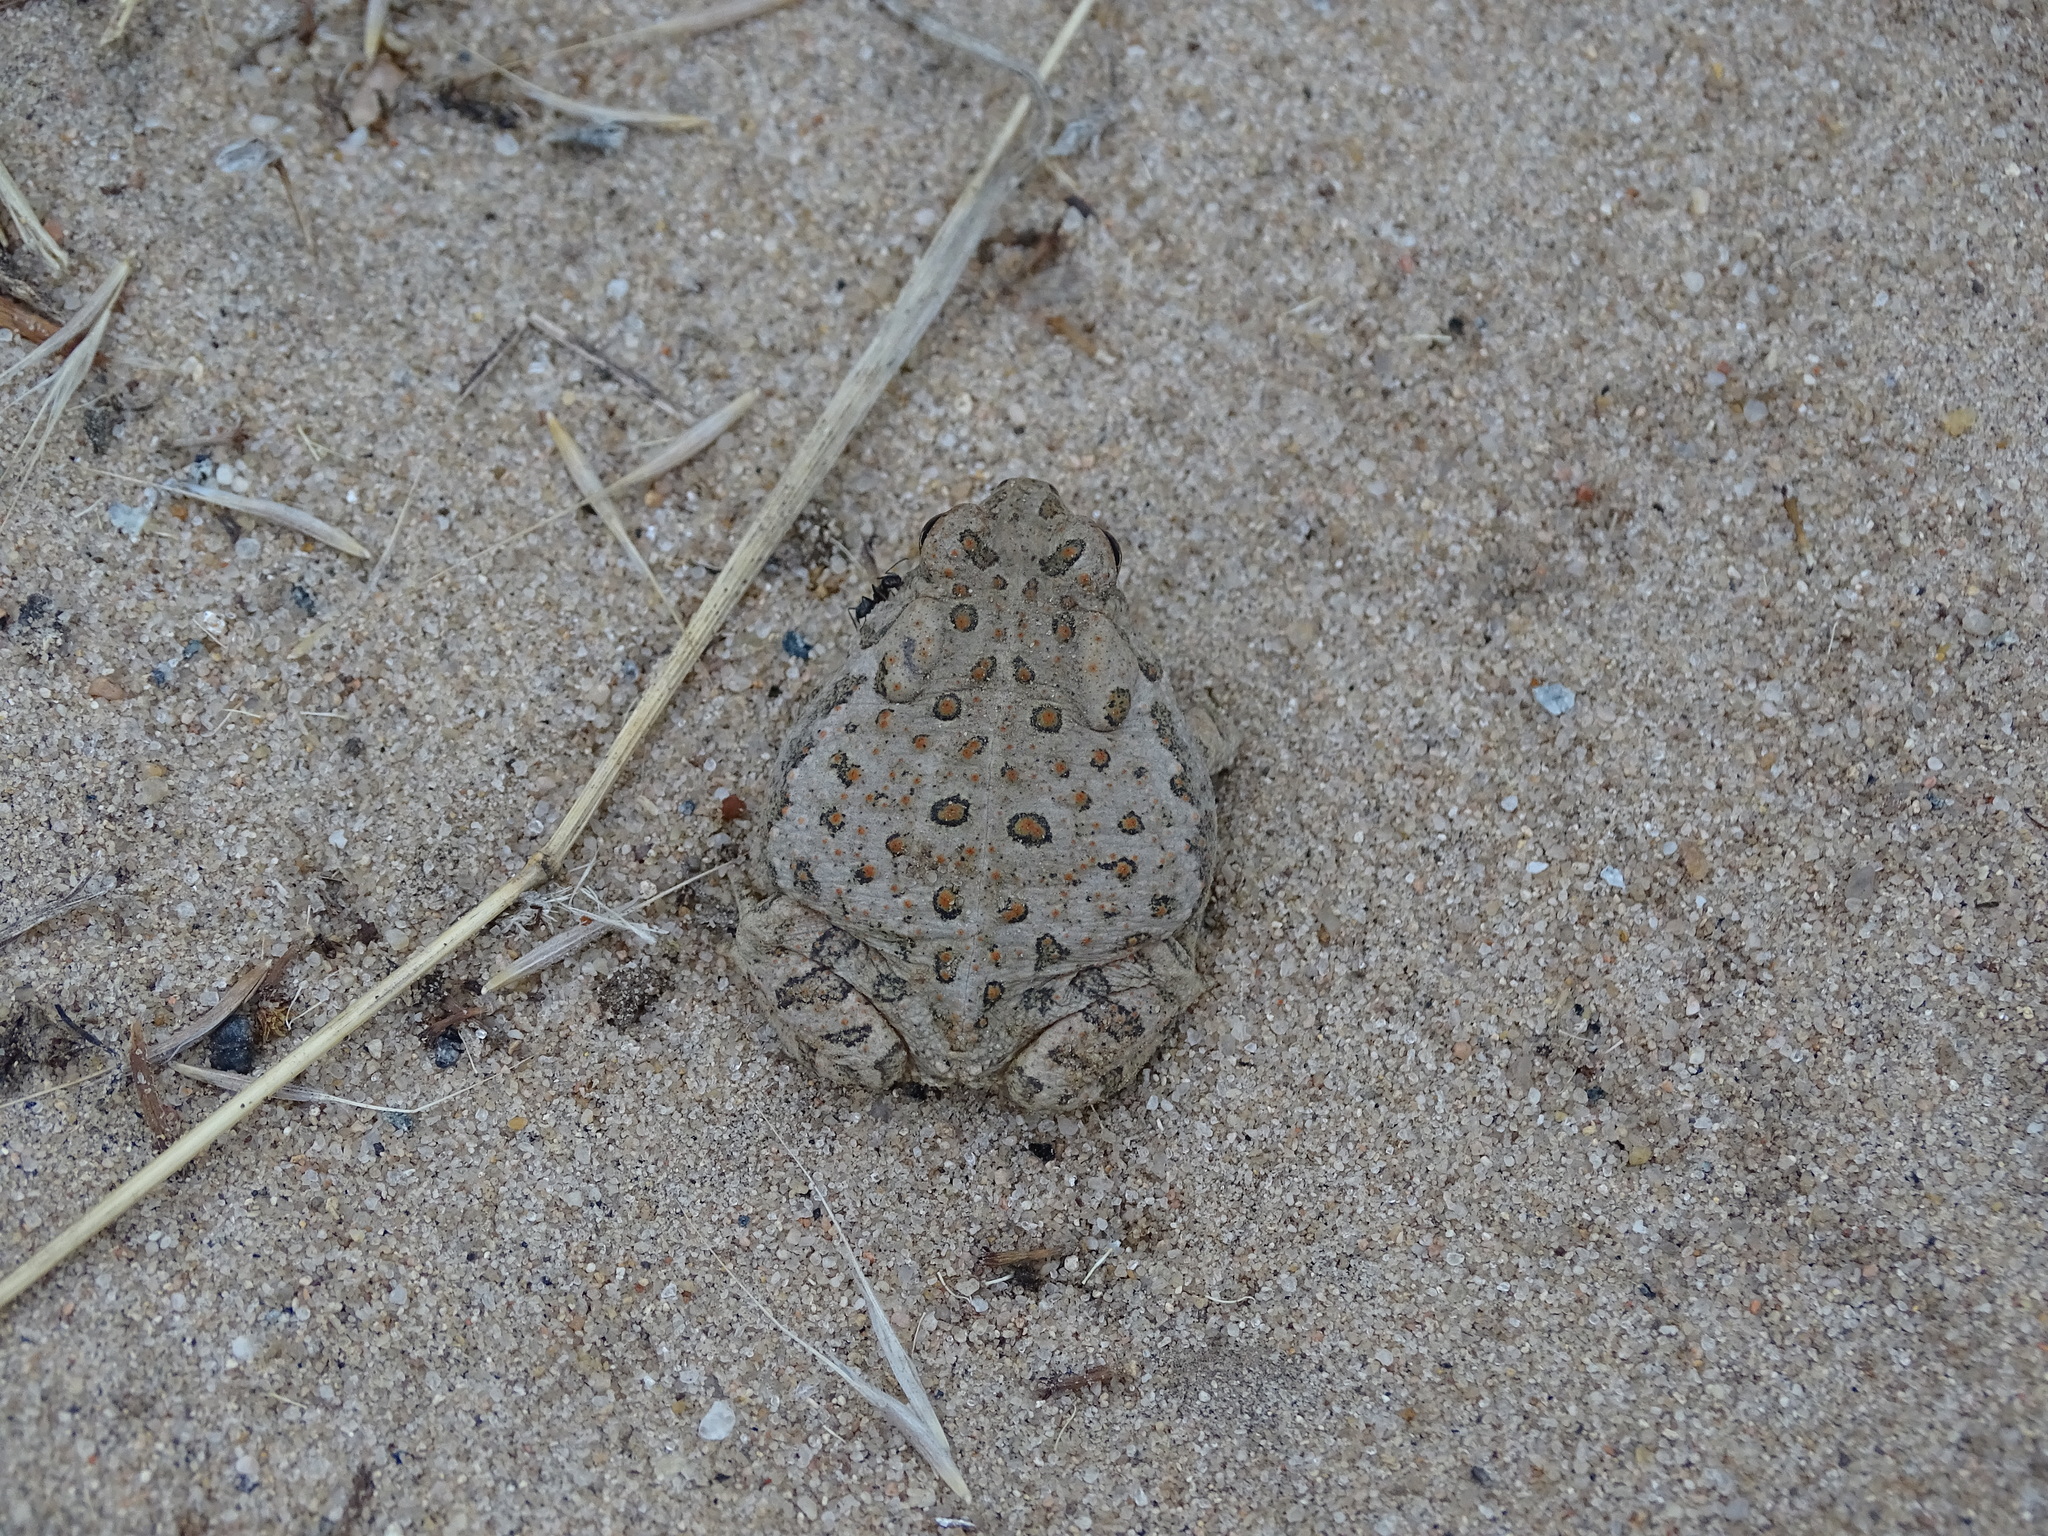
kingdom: Animalia
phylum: Chordata
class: Amphibia
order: Anura
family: Bufonidae
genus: Anaxyrus
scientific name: Anaxyrus woodhousii
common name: Woodhouse's toad
